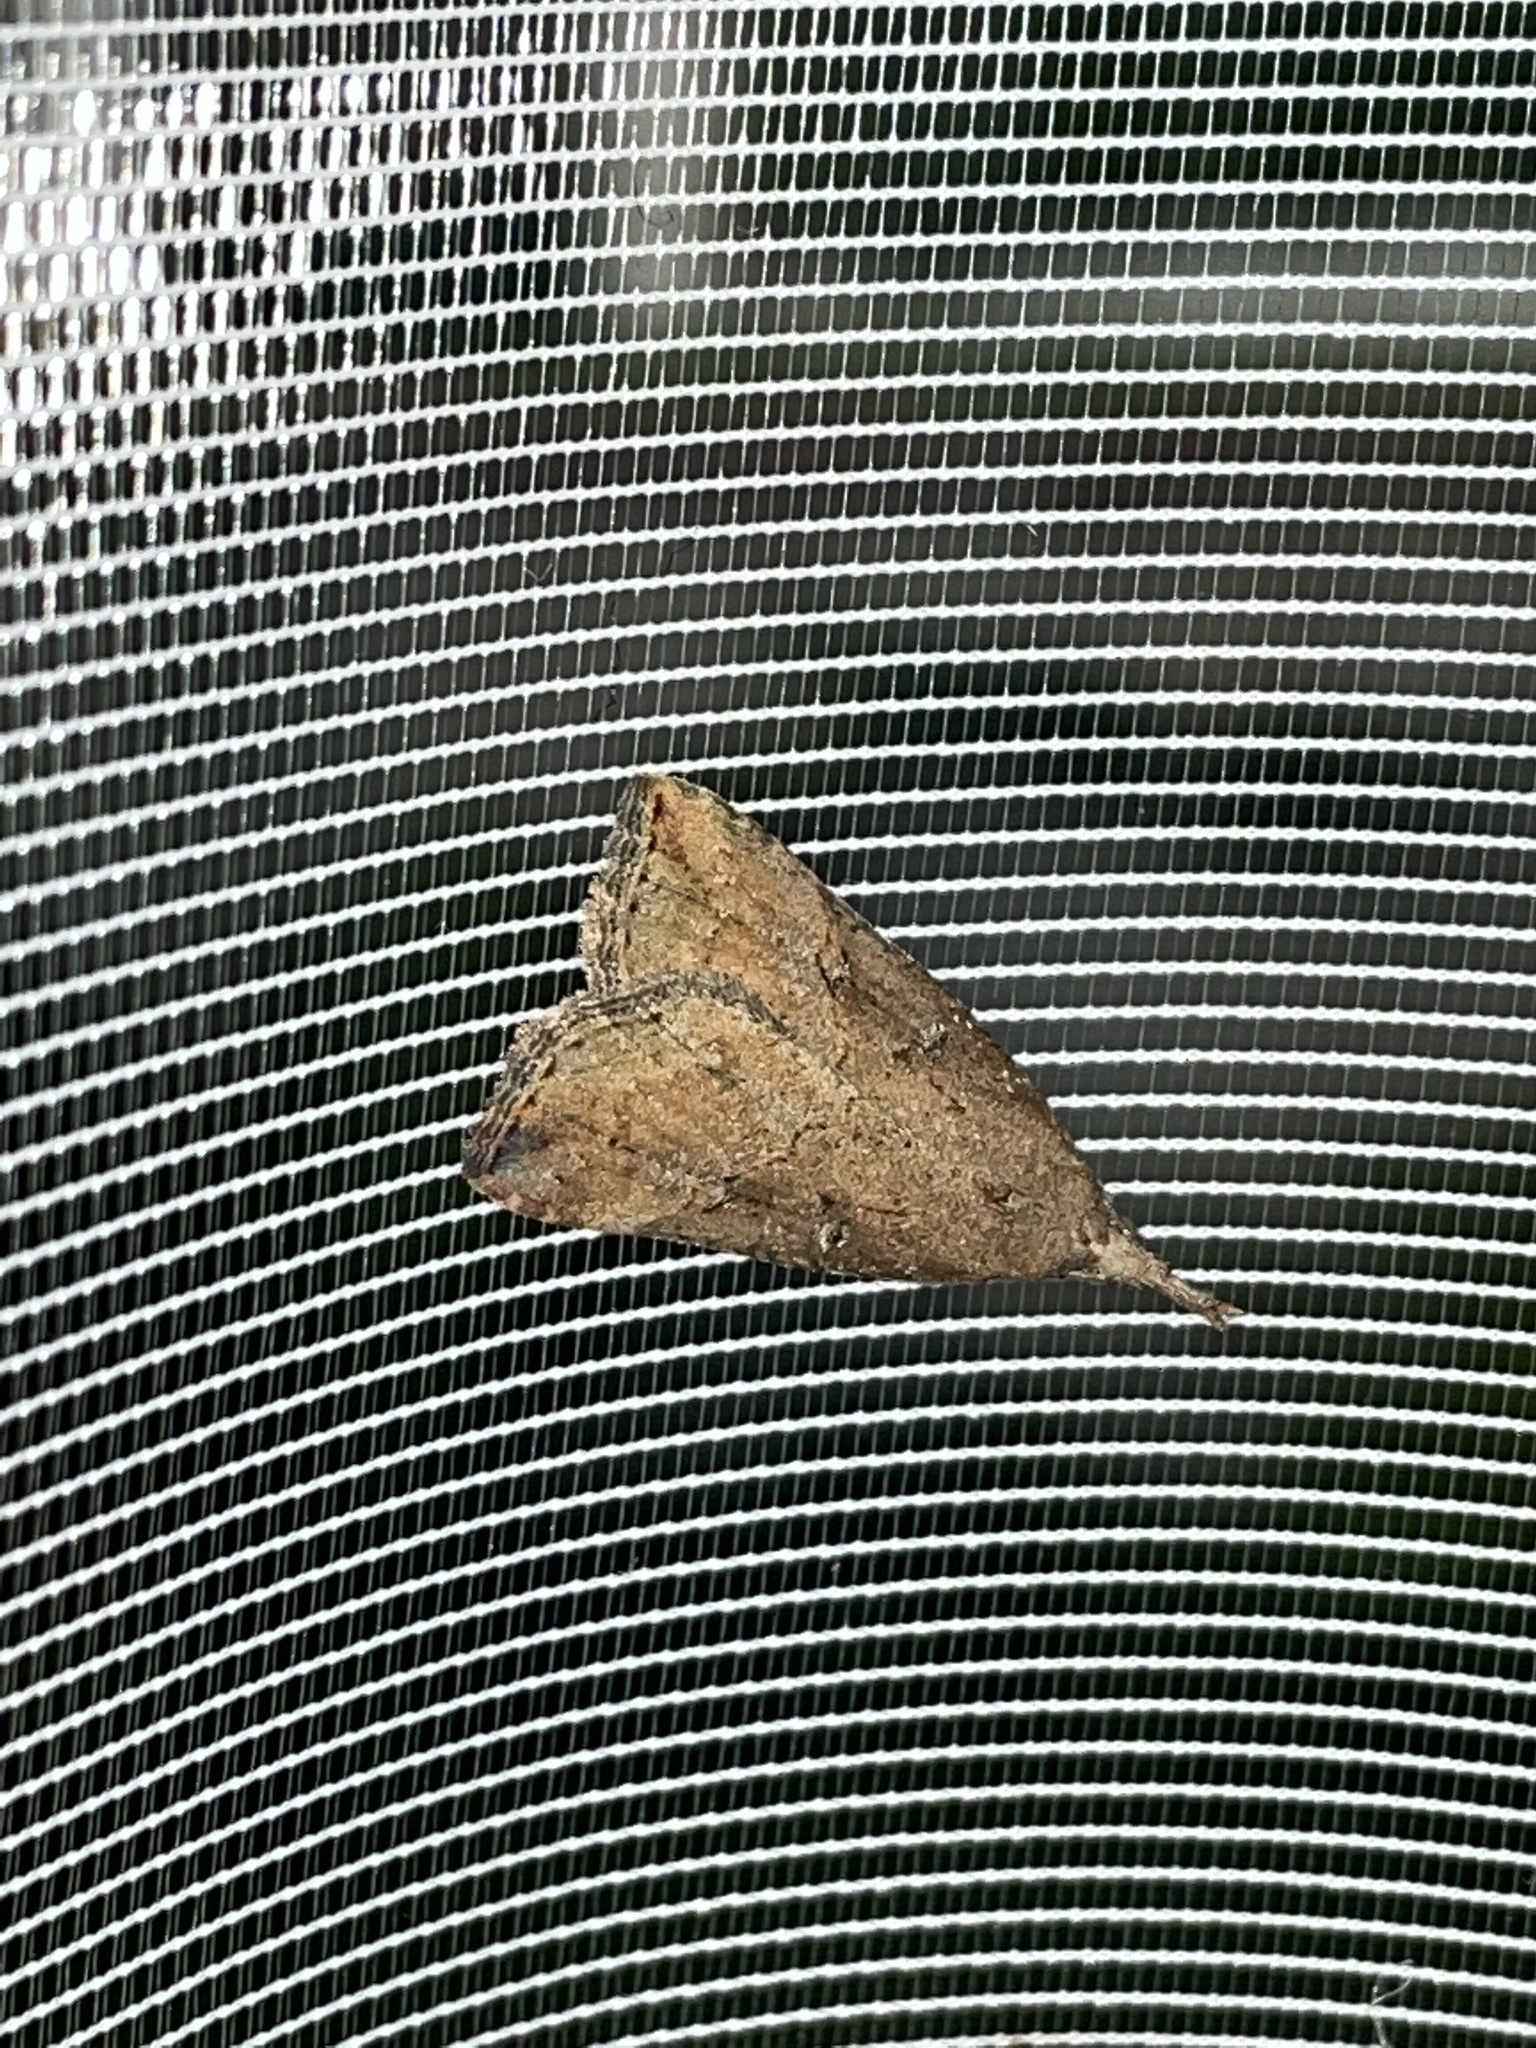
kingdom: Animalia
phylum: Arthropoda
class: Insecta
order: Lepidoptera
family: Erebidae
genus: Hypena
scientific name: Hypena rostralis
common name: Buttoned snout
